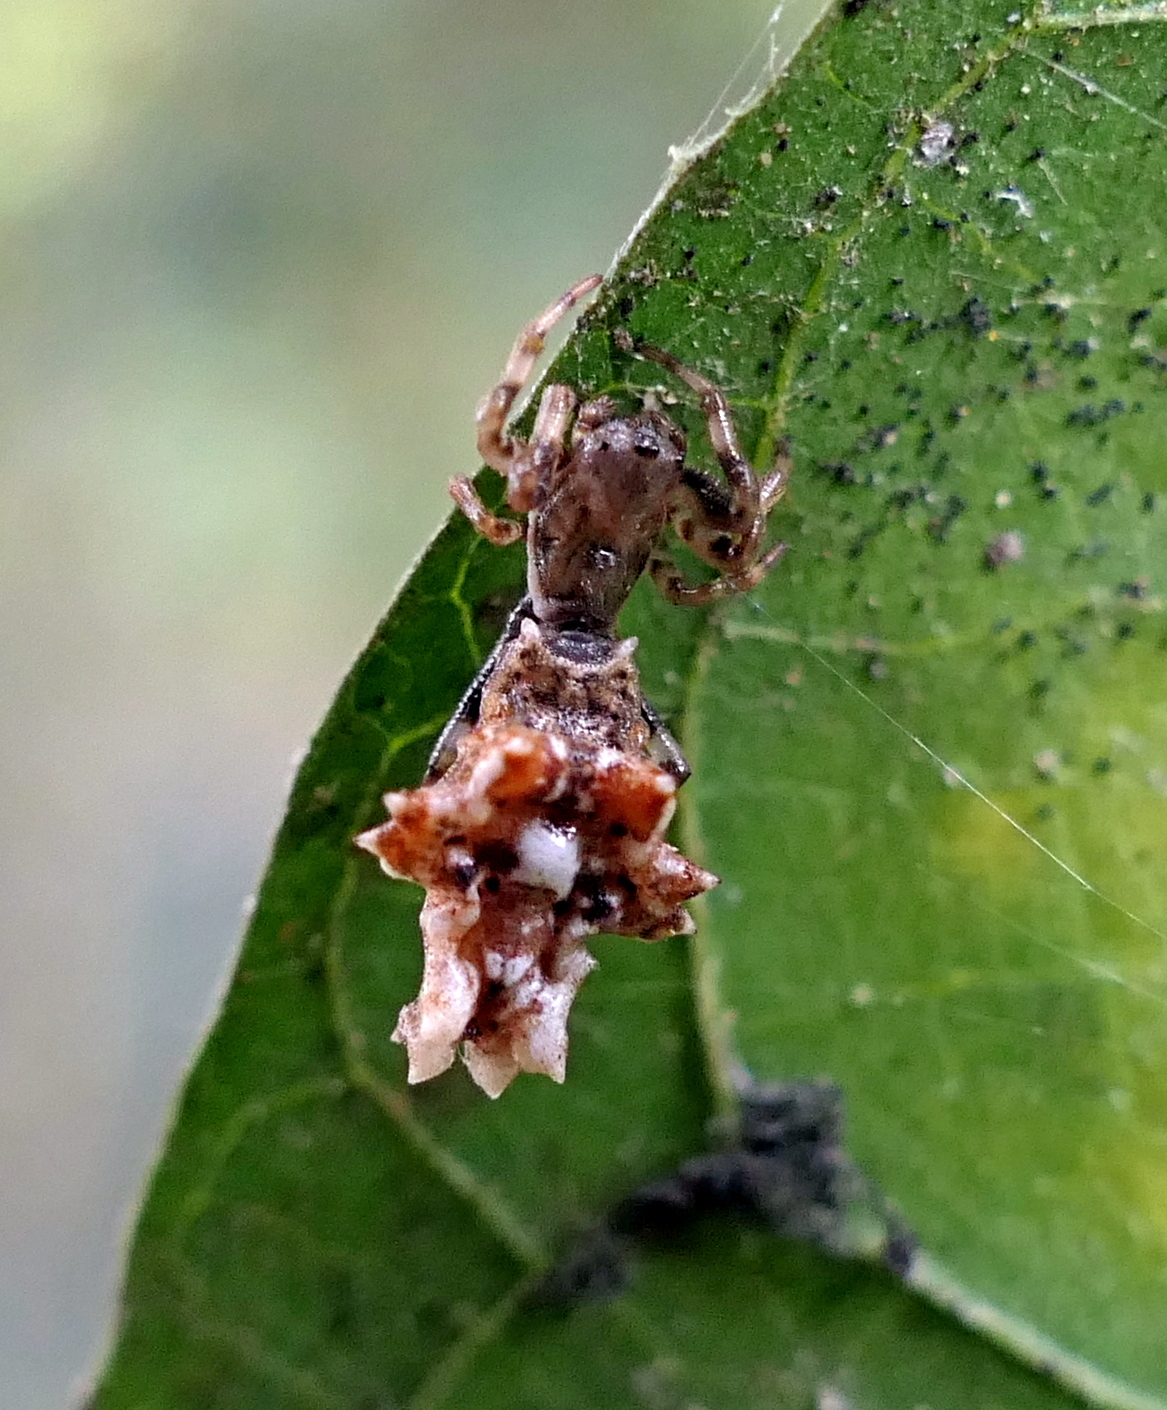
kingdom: Animalia
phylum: Arthropoda
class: Arachnida
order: Araneae
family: Araneidae
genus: Micrathena
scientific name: Micrathena horrida
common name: Orb weavers
